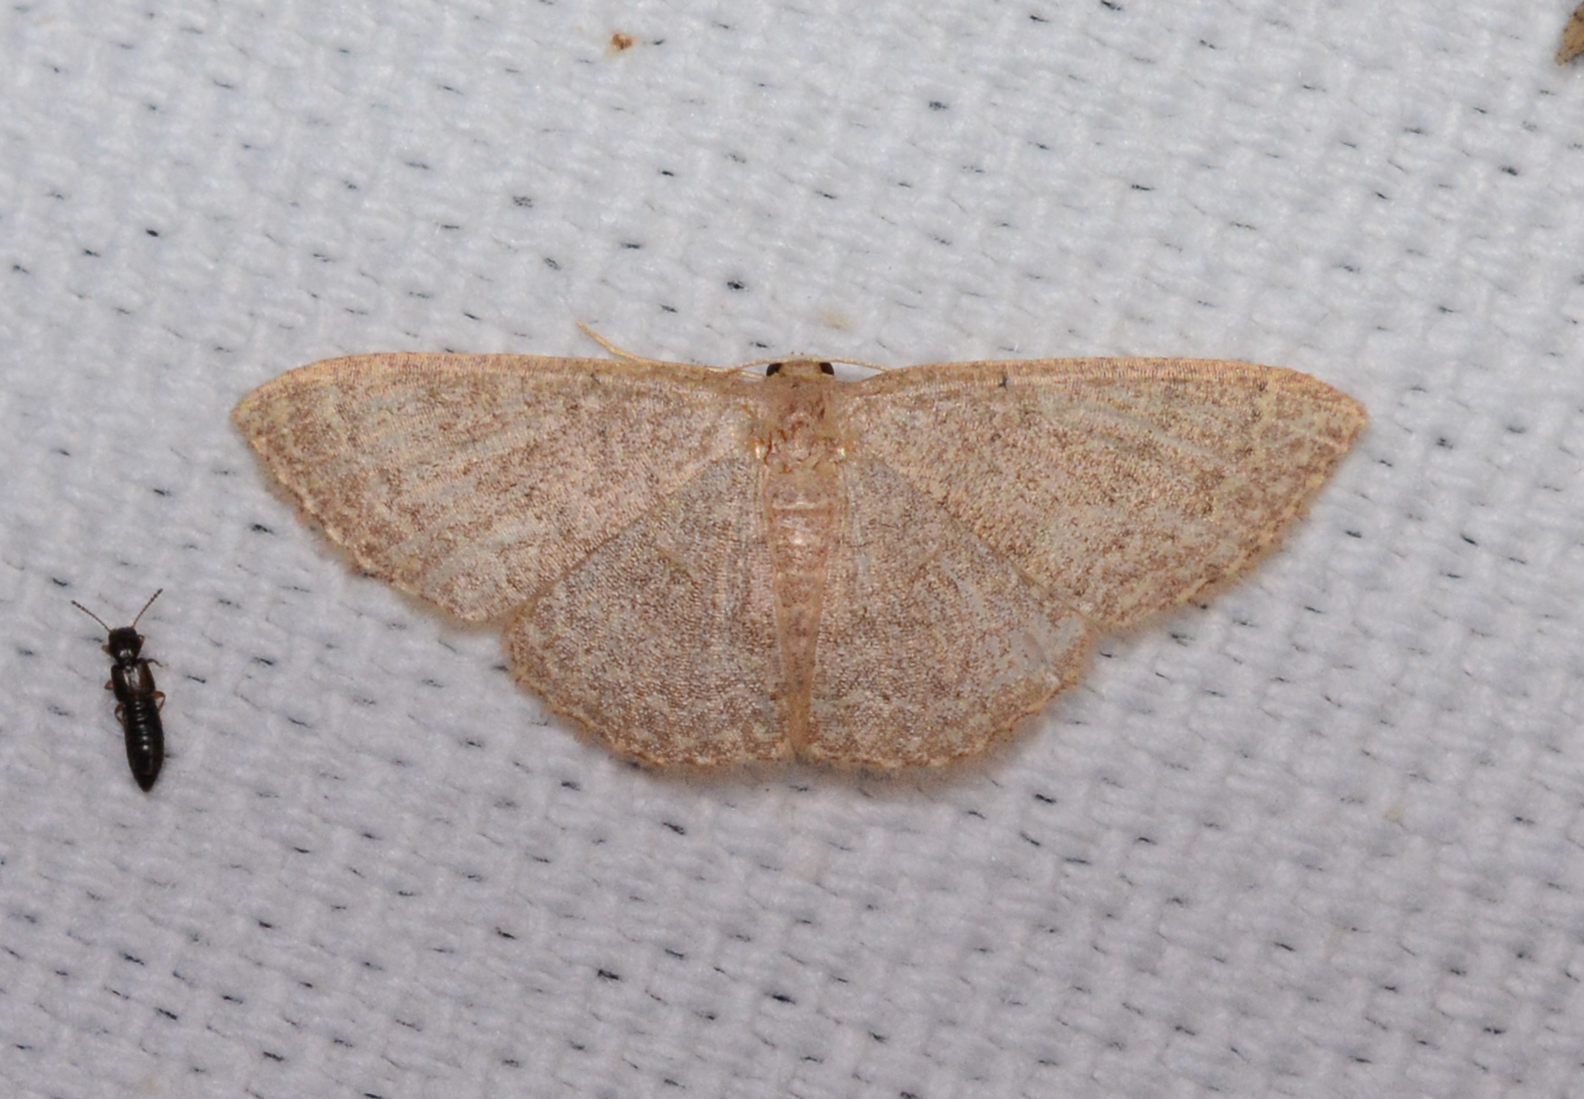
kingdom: Animalia
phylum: Arthropoda
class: Insecta
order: Lepidoptera
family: Geometridae
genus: Pleuroprucha
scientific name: Pleuroprucha insulsaria
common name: Common tan wave
